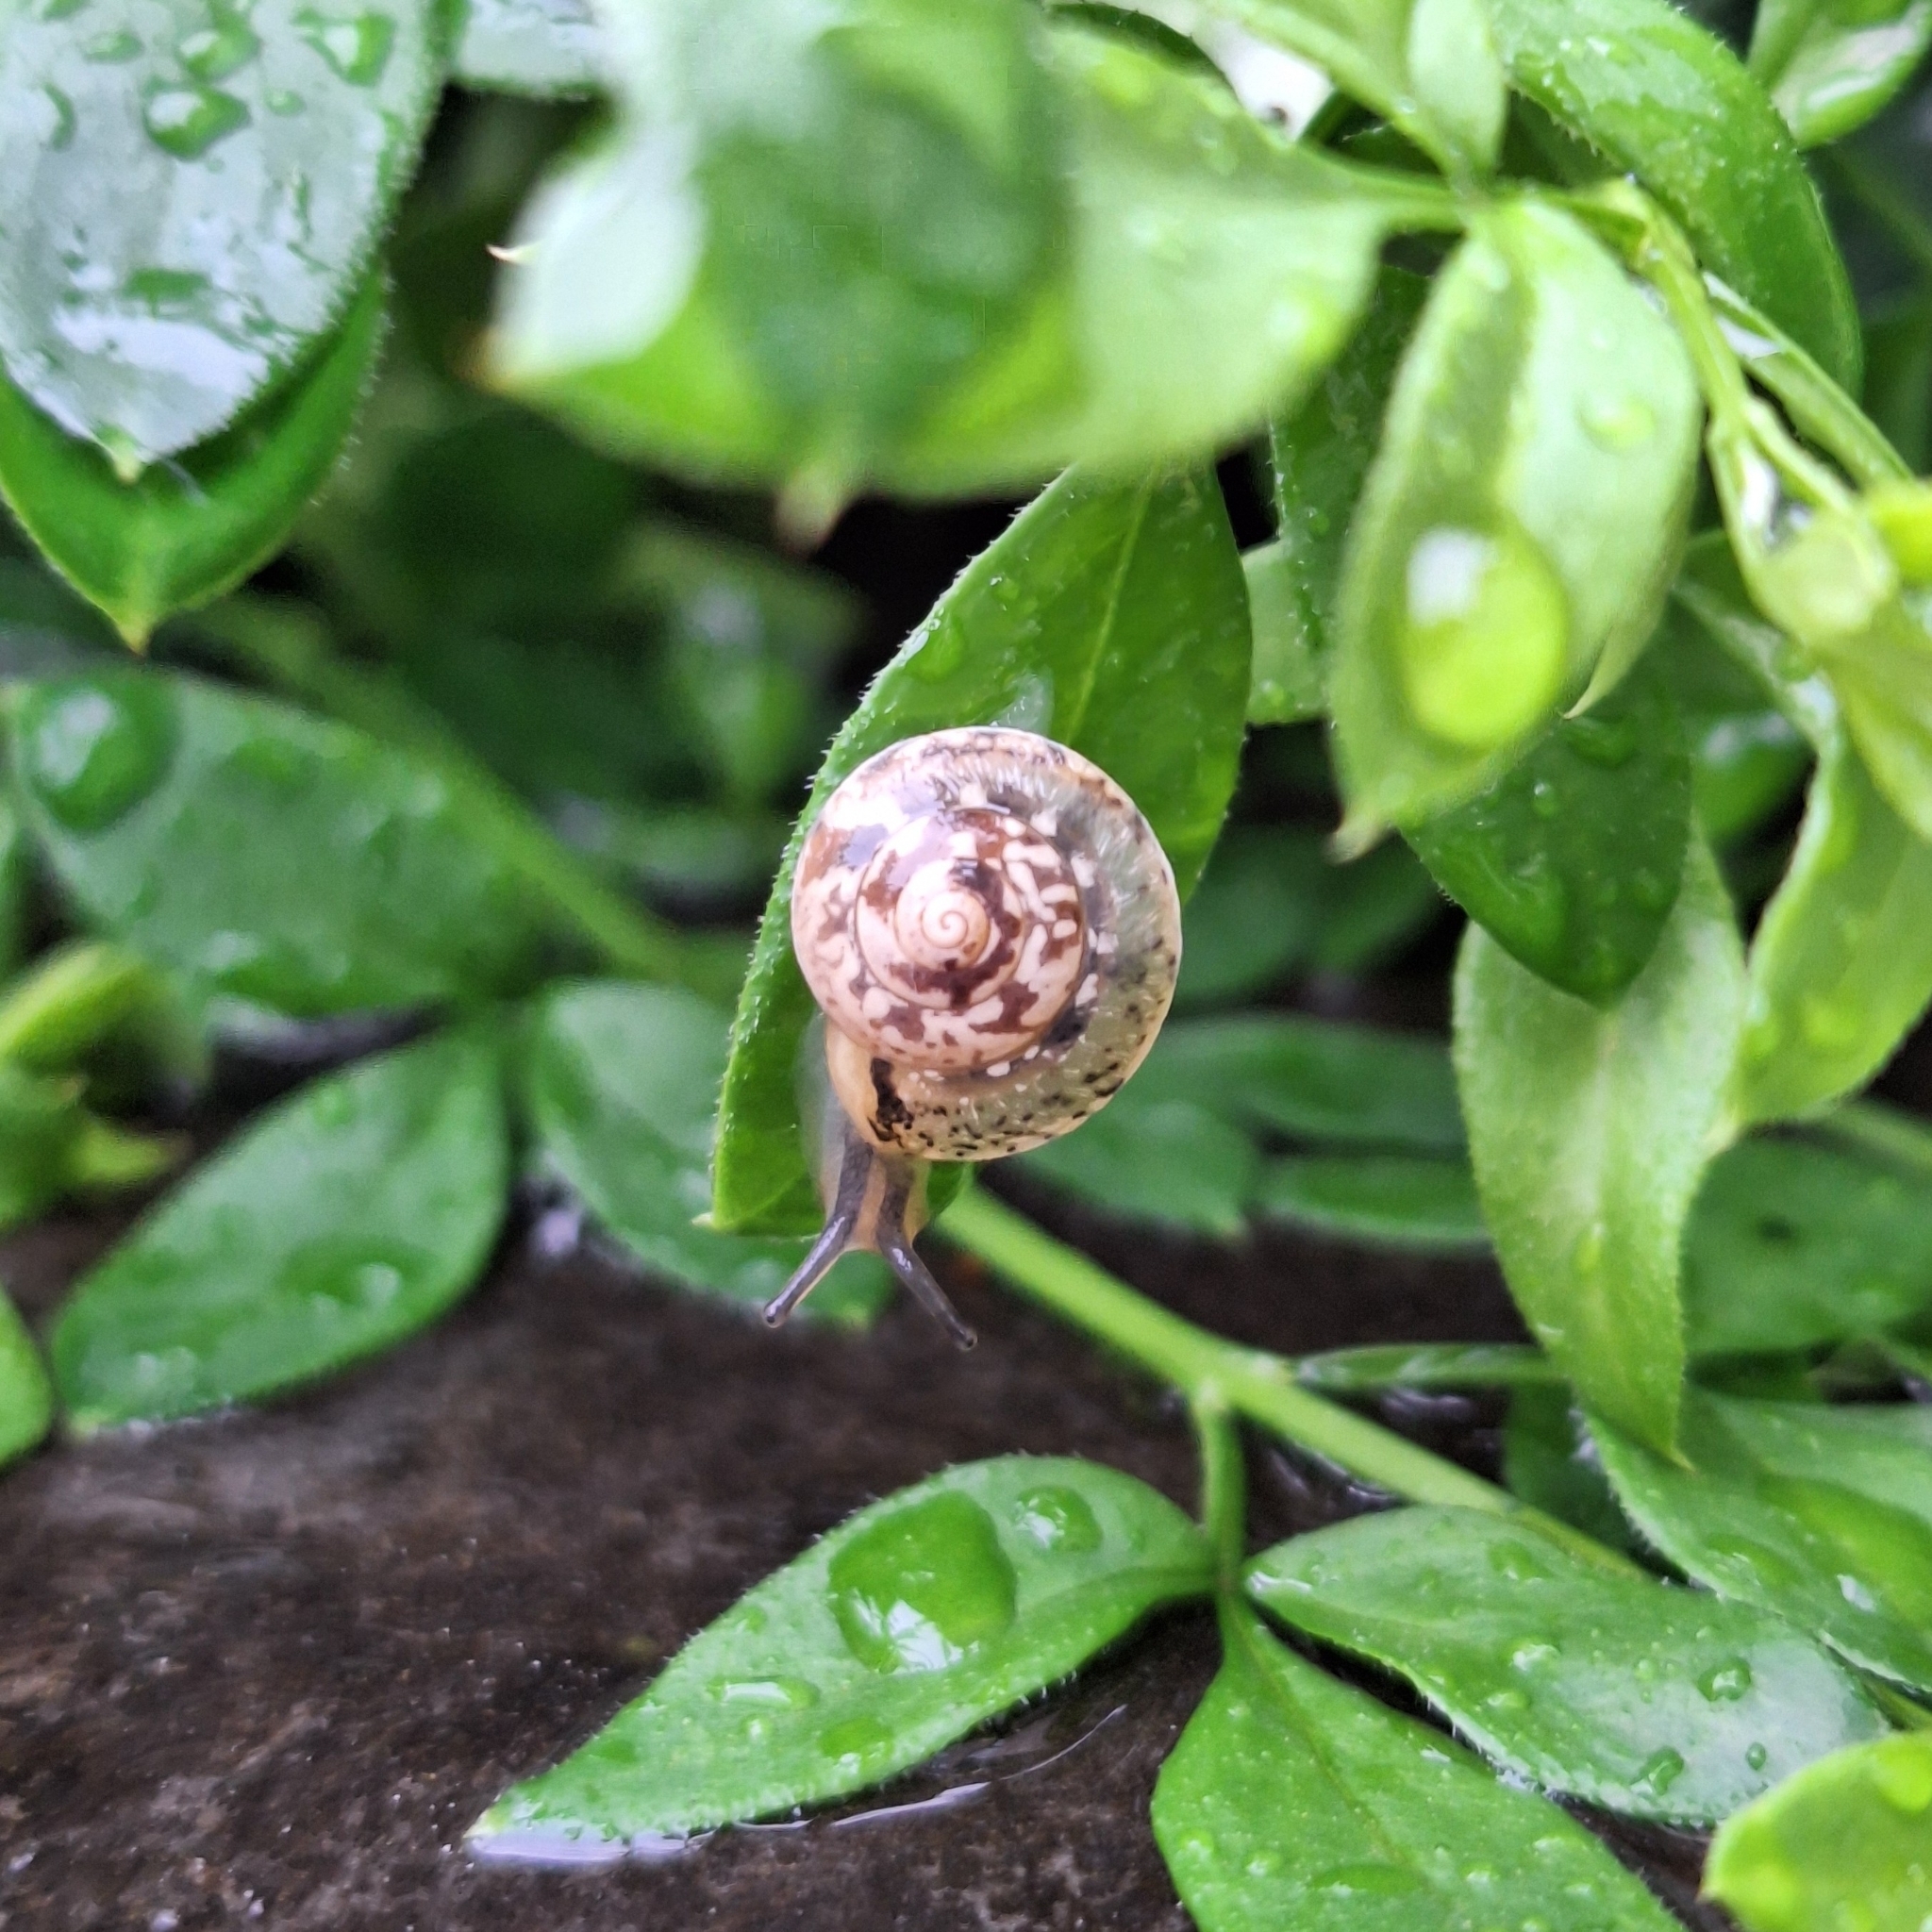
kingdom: Animalia
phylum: Mollusca
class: Gastropoda
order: Stylommatophora
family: Hygromiidae
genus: Hygromia
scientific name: Hygromia cinctella
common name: Girdled snail
